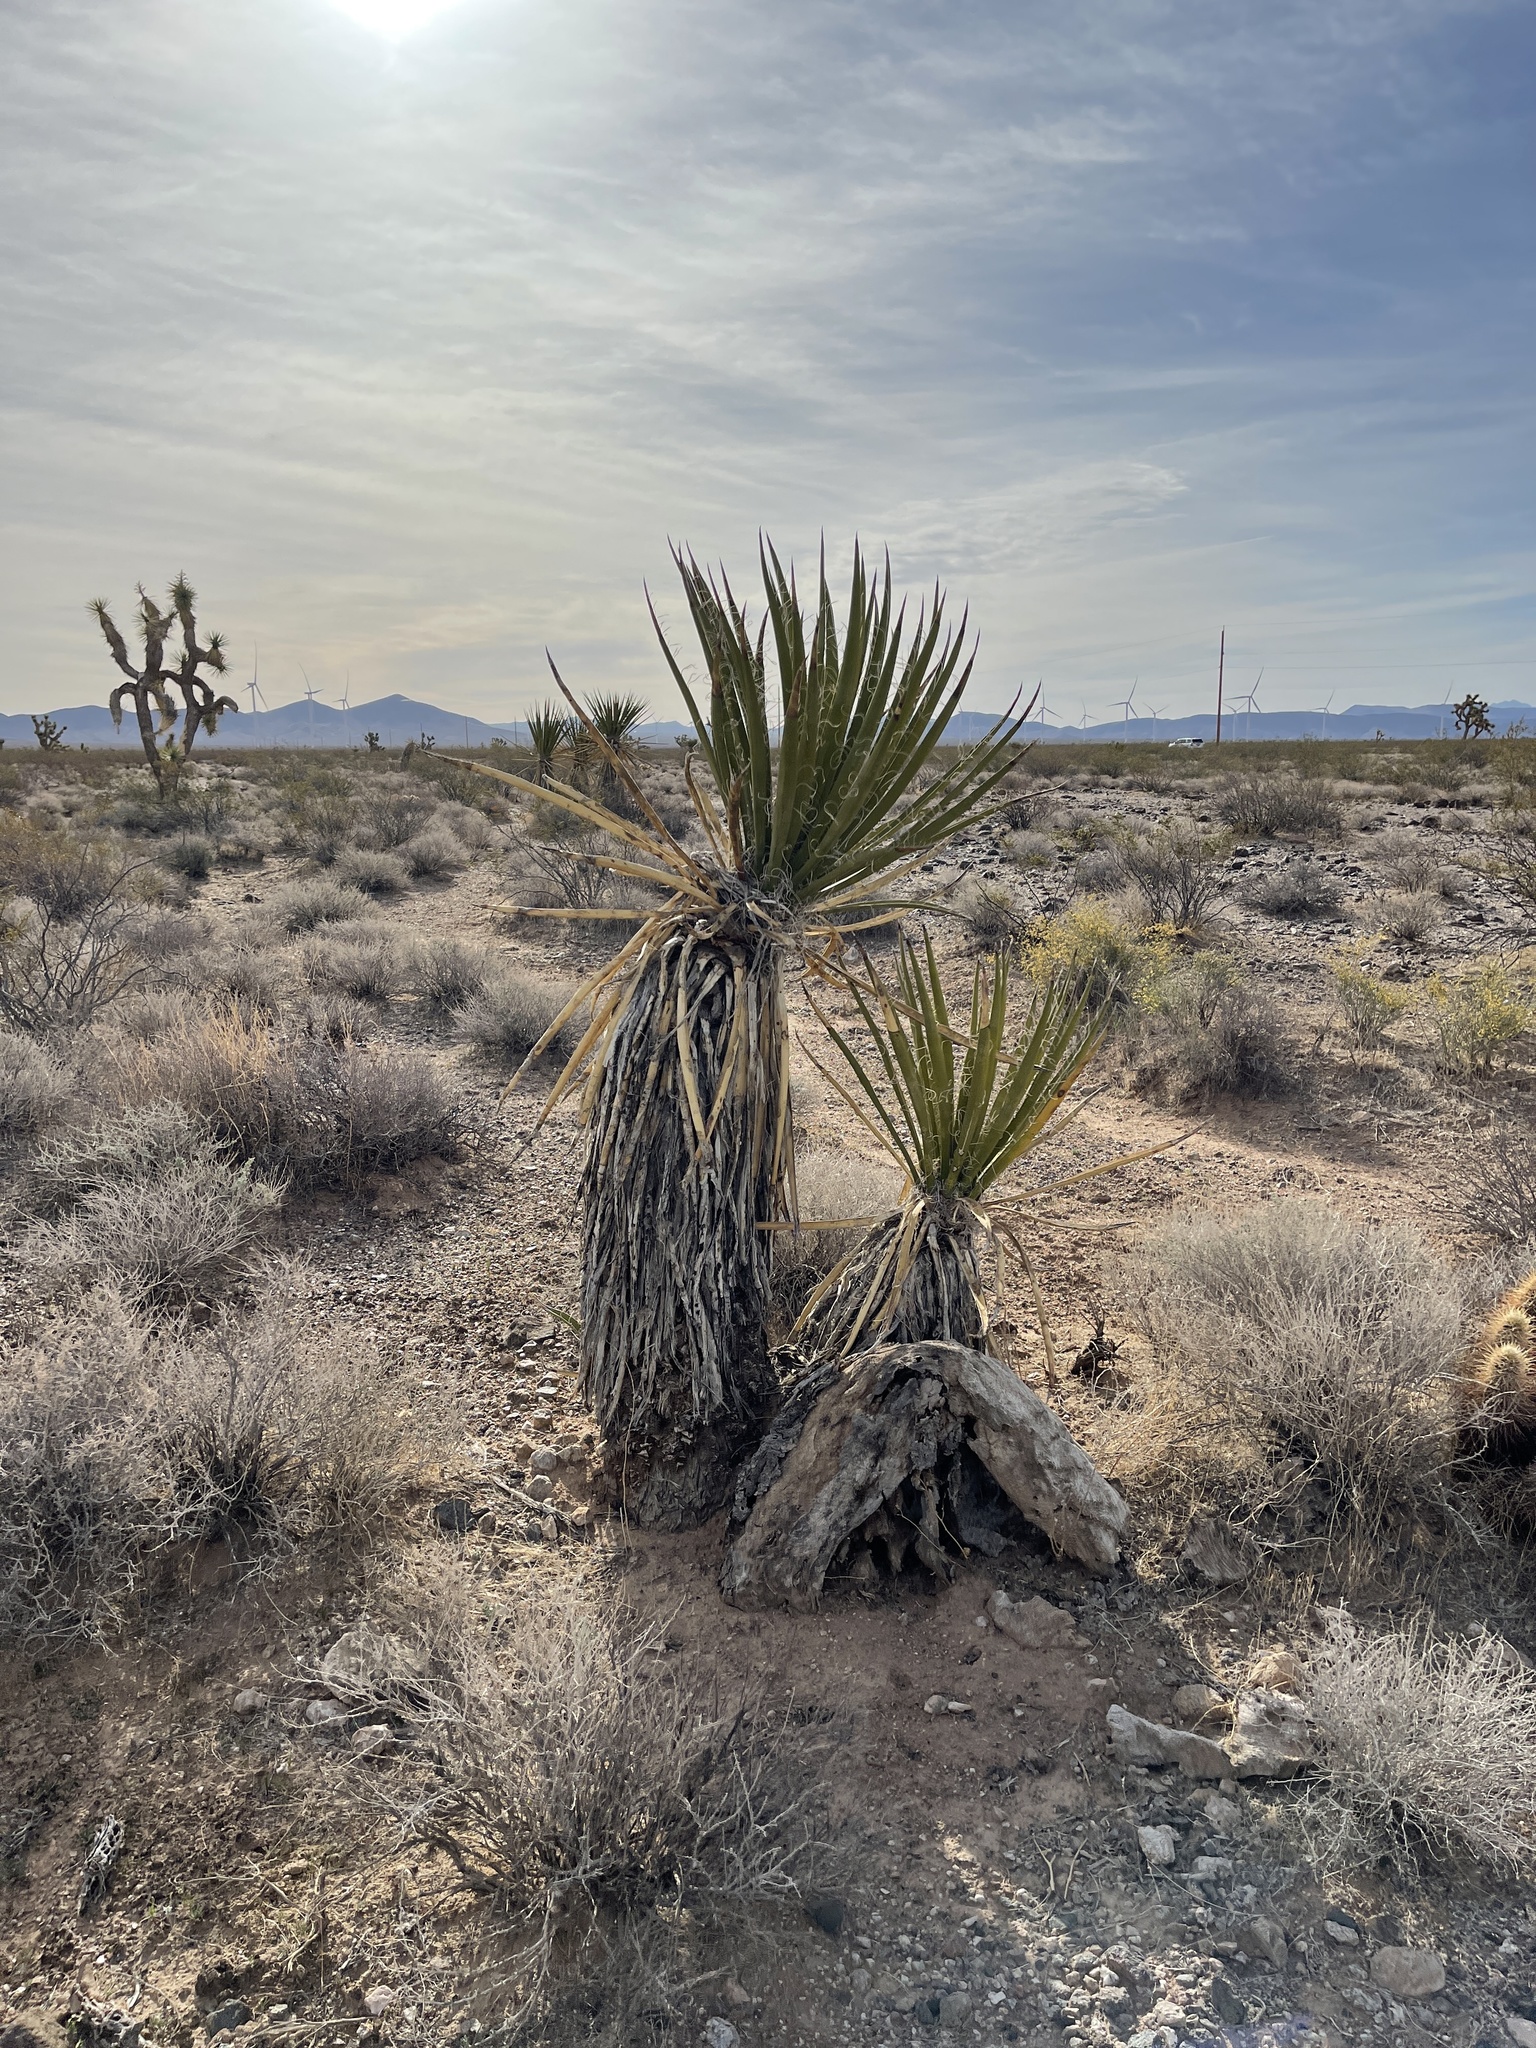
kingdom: Plantae
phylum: Tracheophyta
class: Liliopsida
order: Asparagales
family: Asparagaceae
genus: Yucca
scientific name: Yucca schidigera
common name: Mojave yucca
